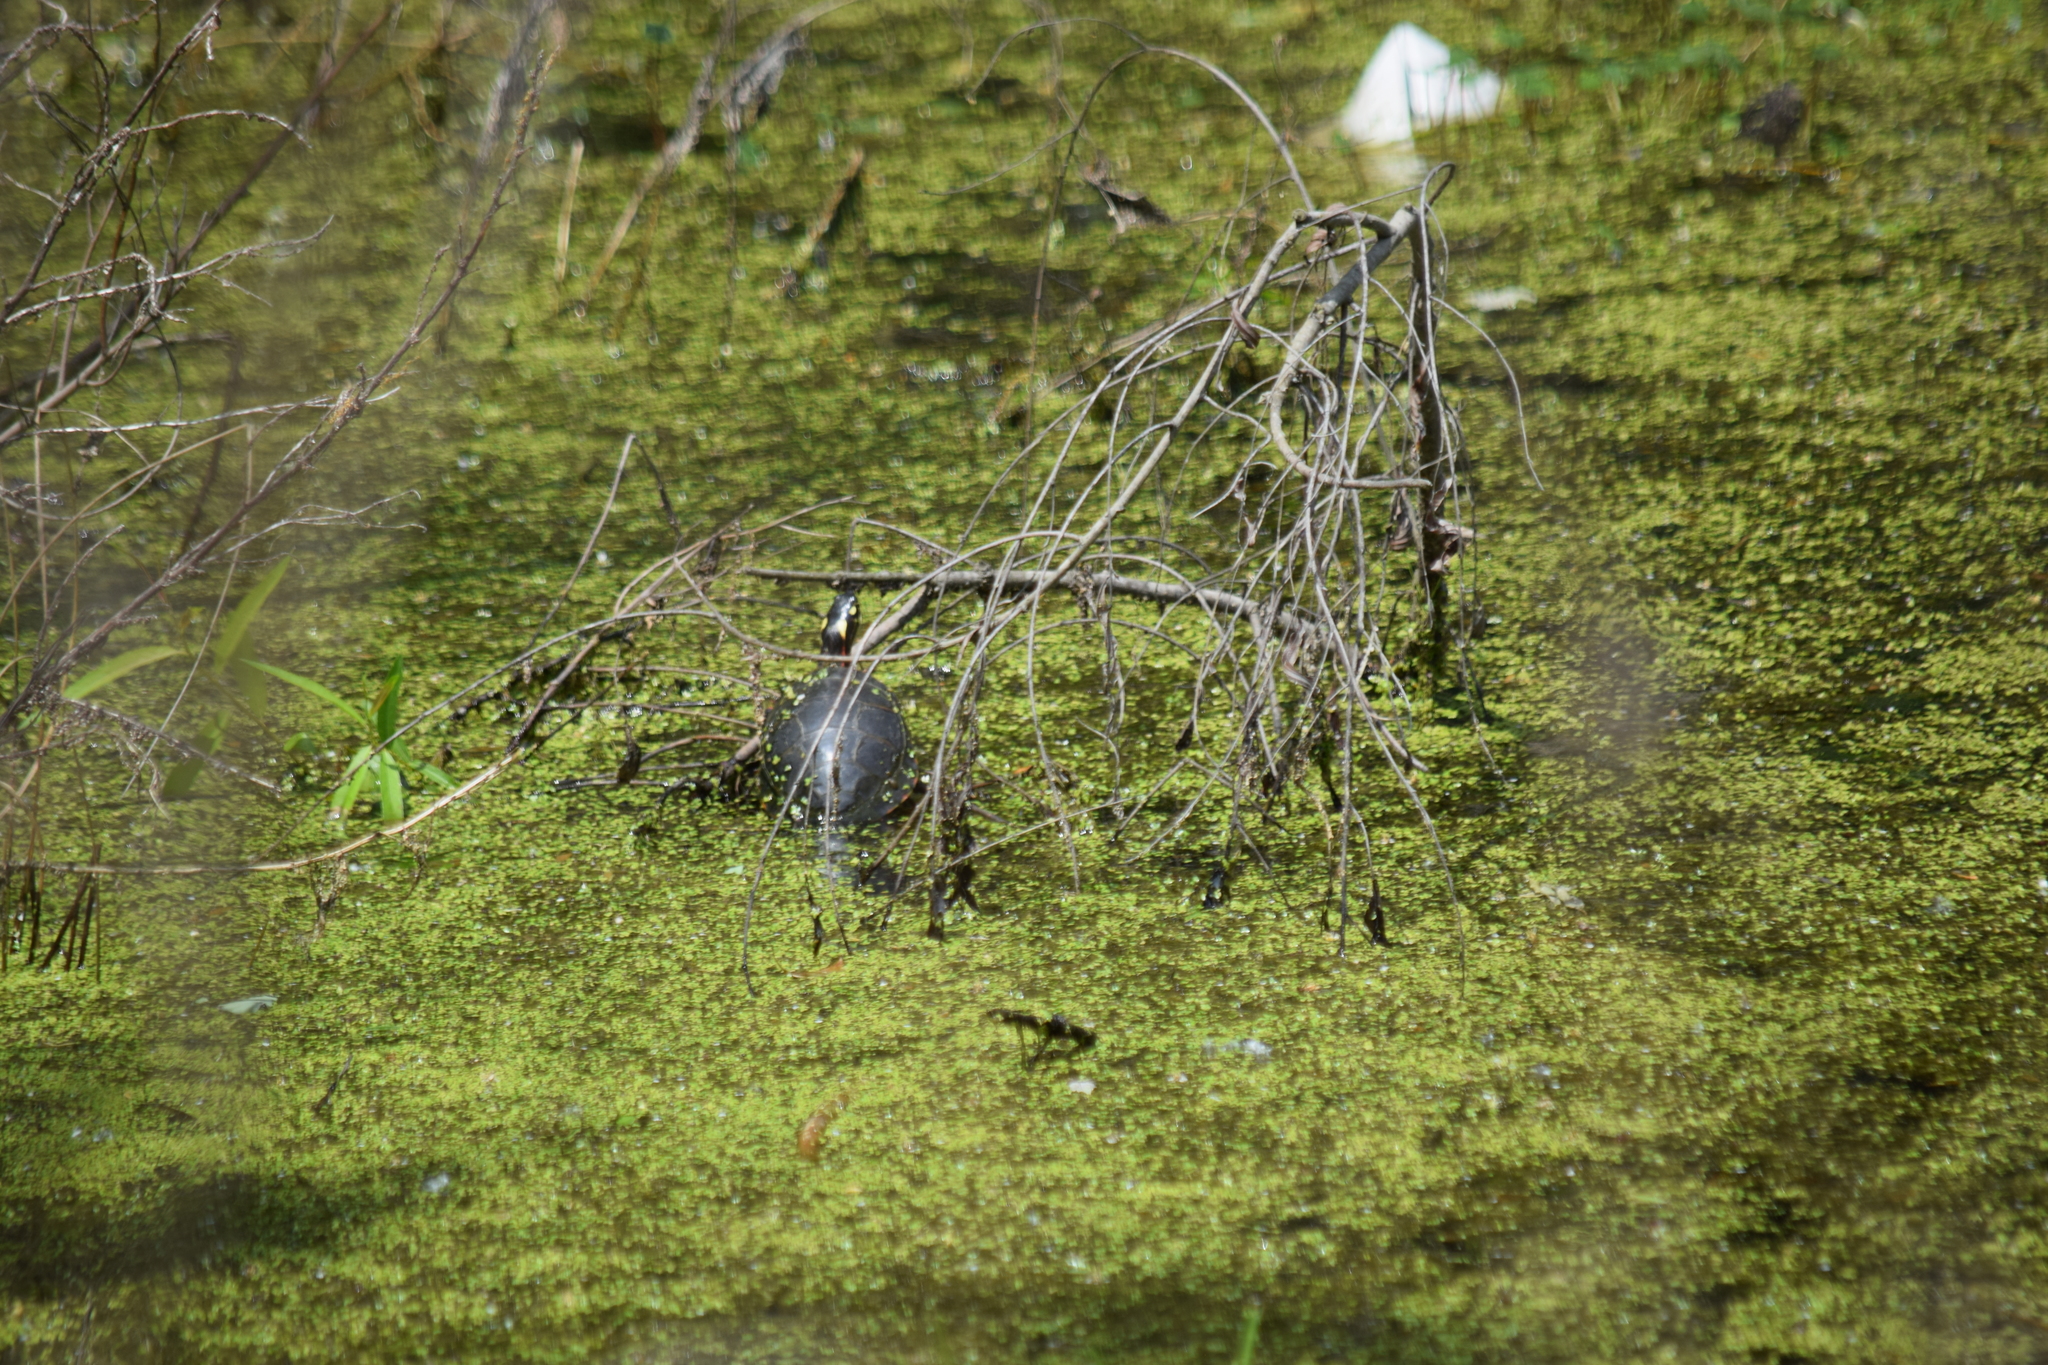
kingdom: Animalia
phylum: Chordata
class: Testudines
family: Emydidae
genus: Chrysemys
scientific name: Chrysemys picta
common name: Painted turtle
